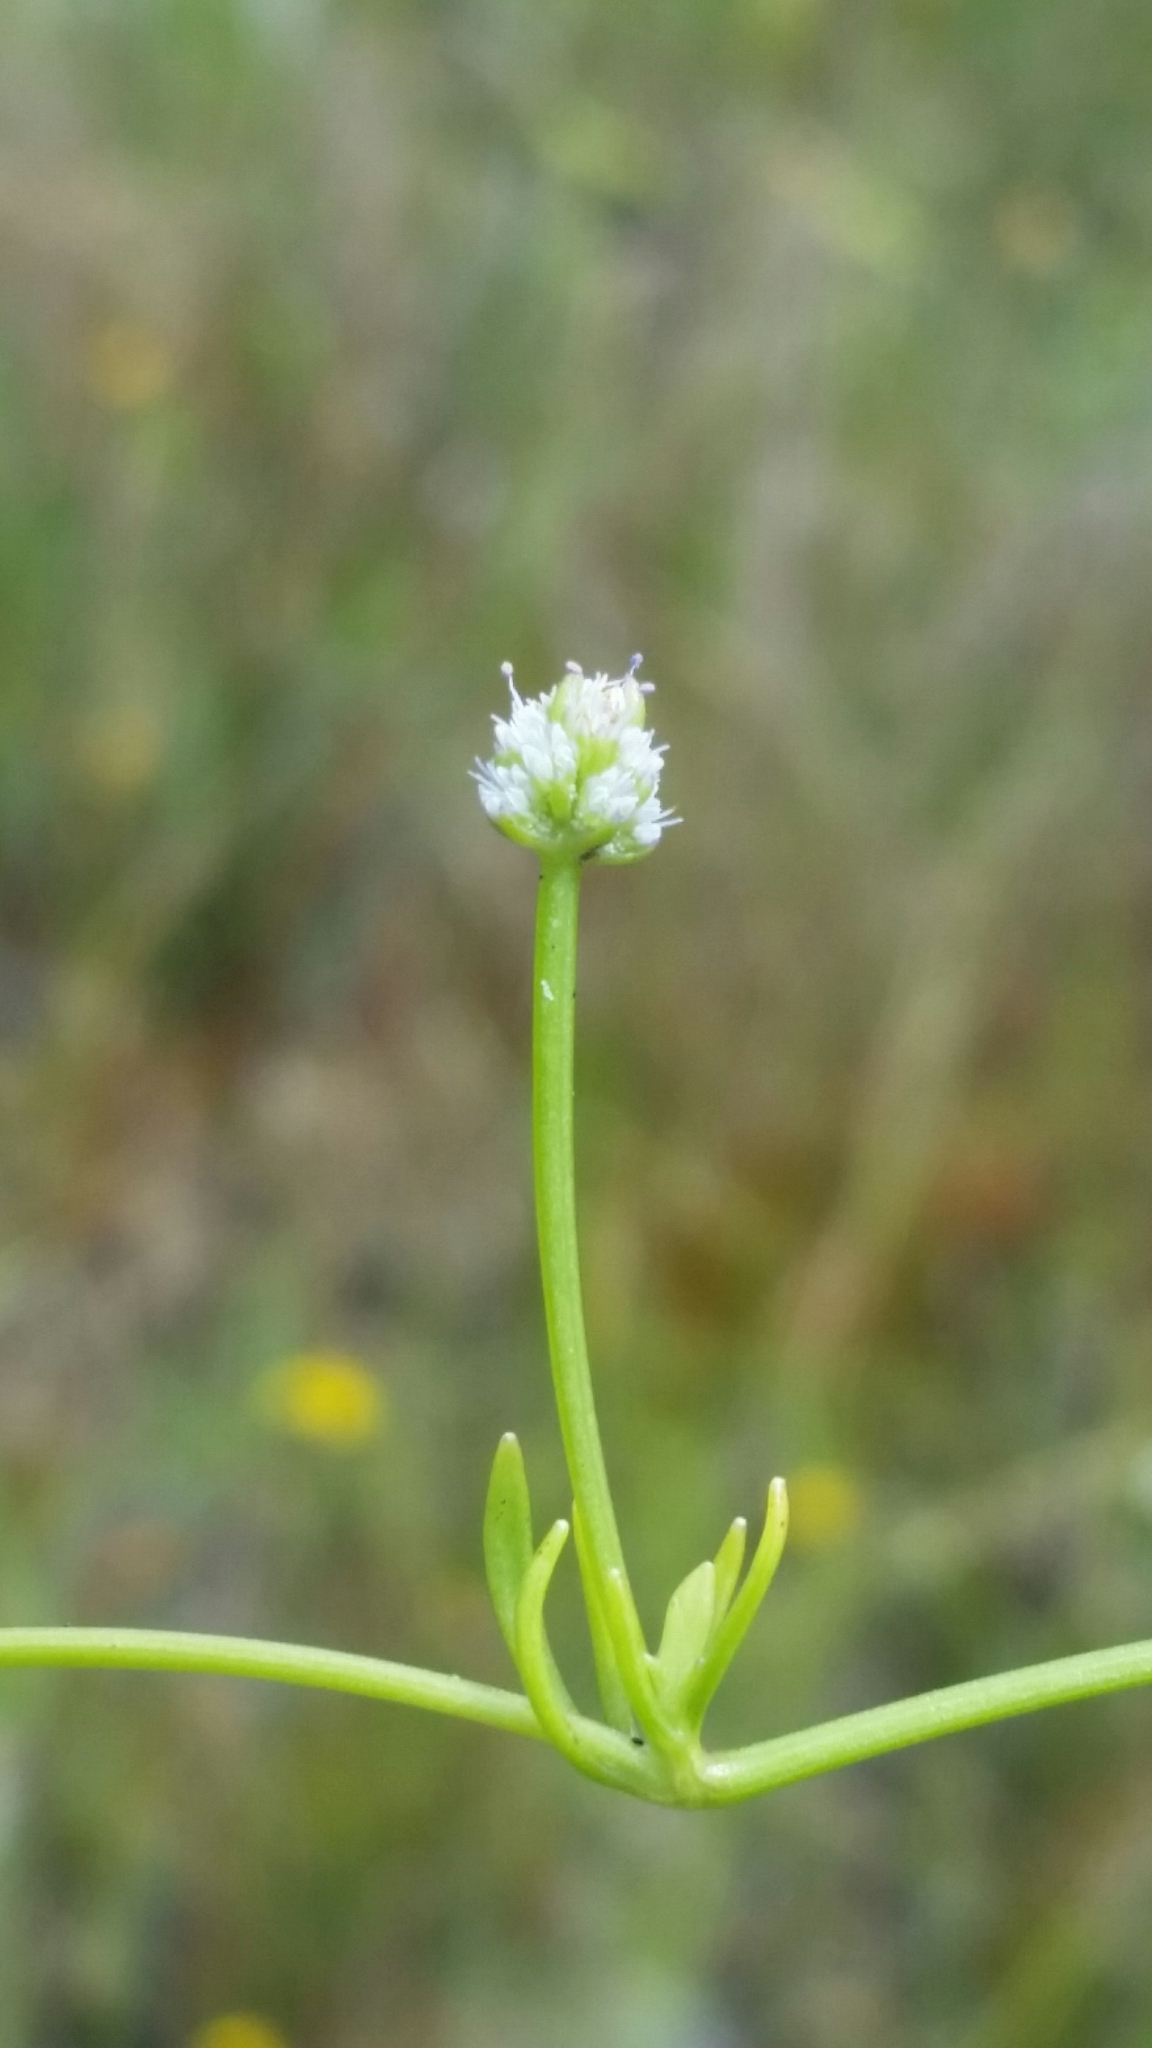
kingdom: Plantae
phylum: Tracheophyta
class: Magnoliopsida
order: Apiales
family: Apiaceae
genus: Eryngium
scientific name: Eryngium baldwinii
